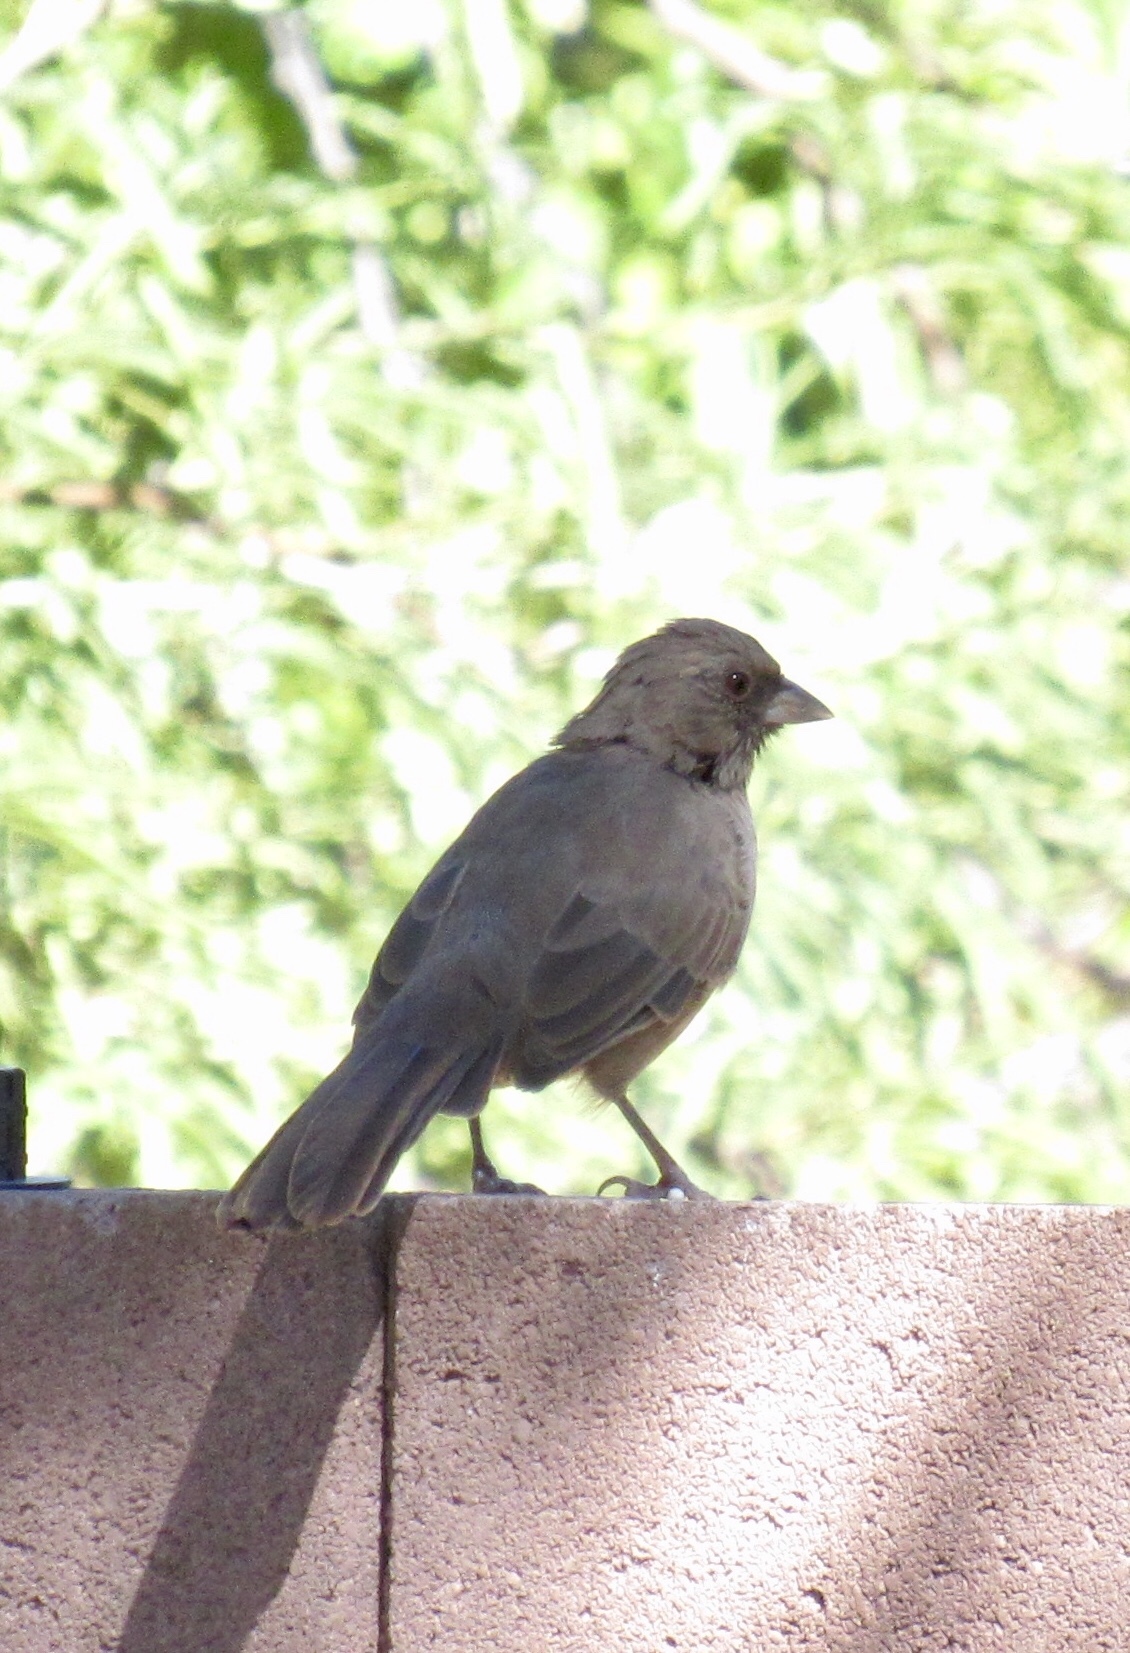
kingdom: Animalia
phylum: Chordata
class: Aves
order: Passeriformes
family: Passerellidae
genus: Melozone
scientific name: Melozone aberti
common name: Abert's towhee
